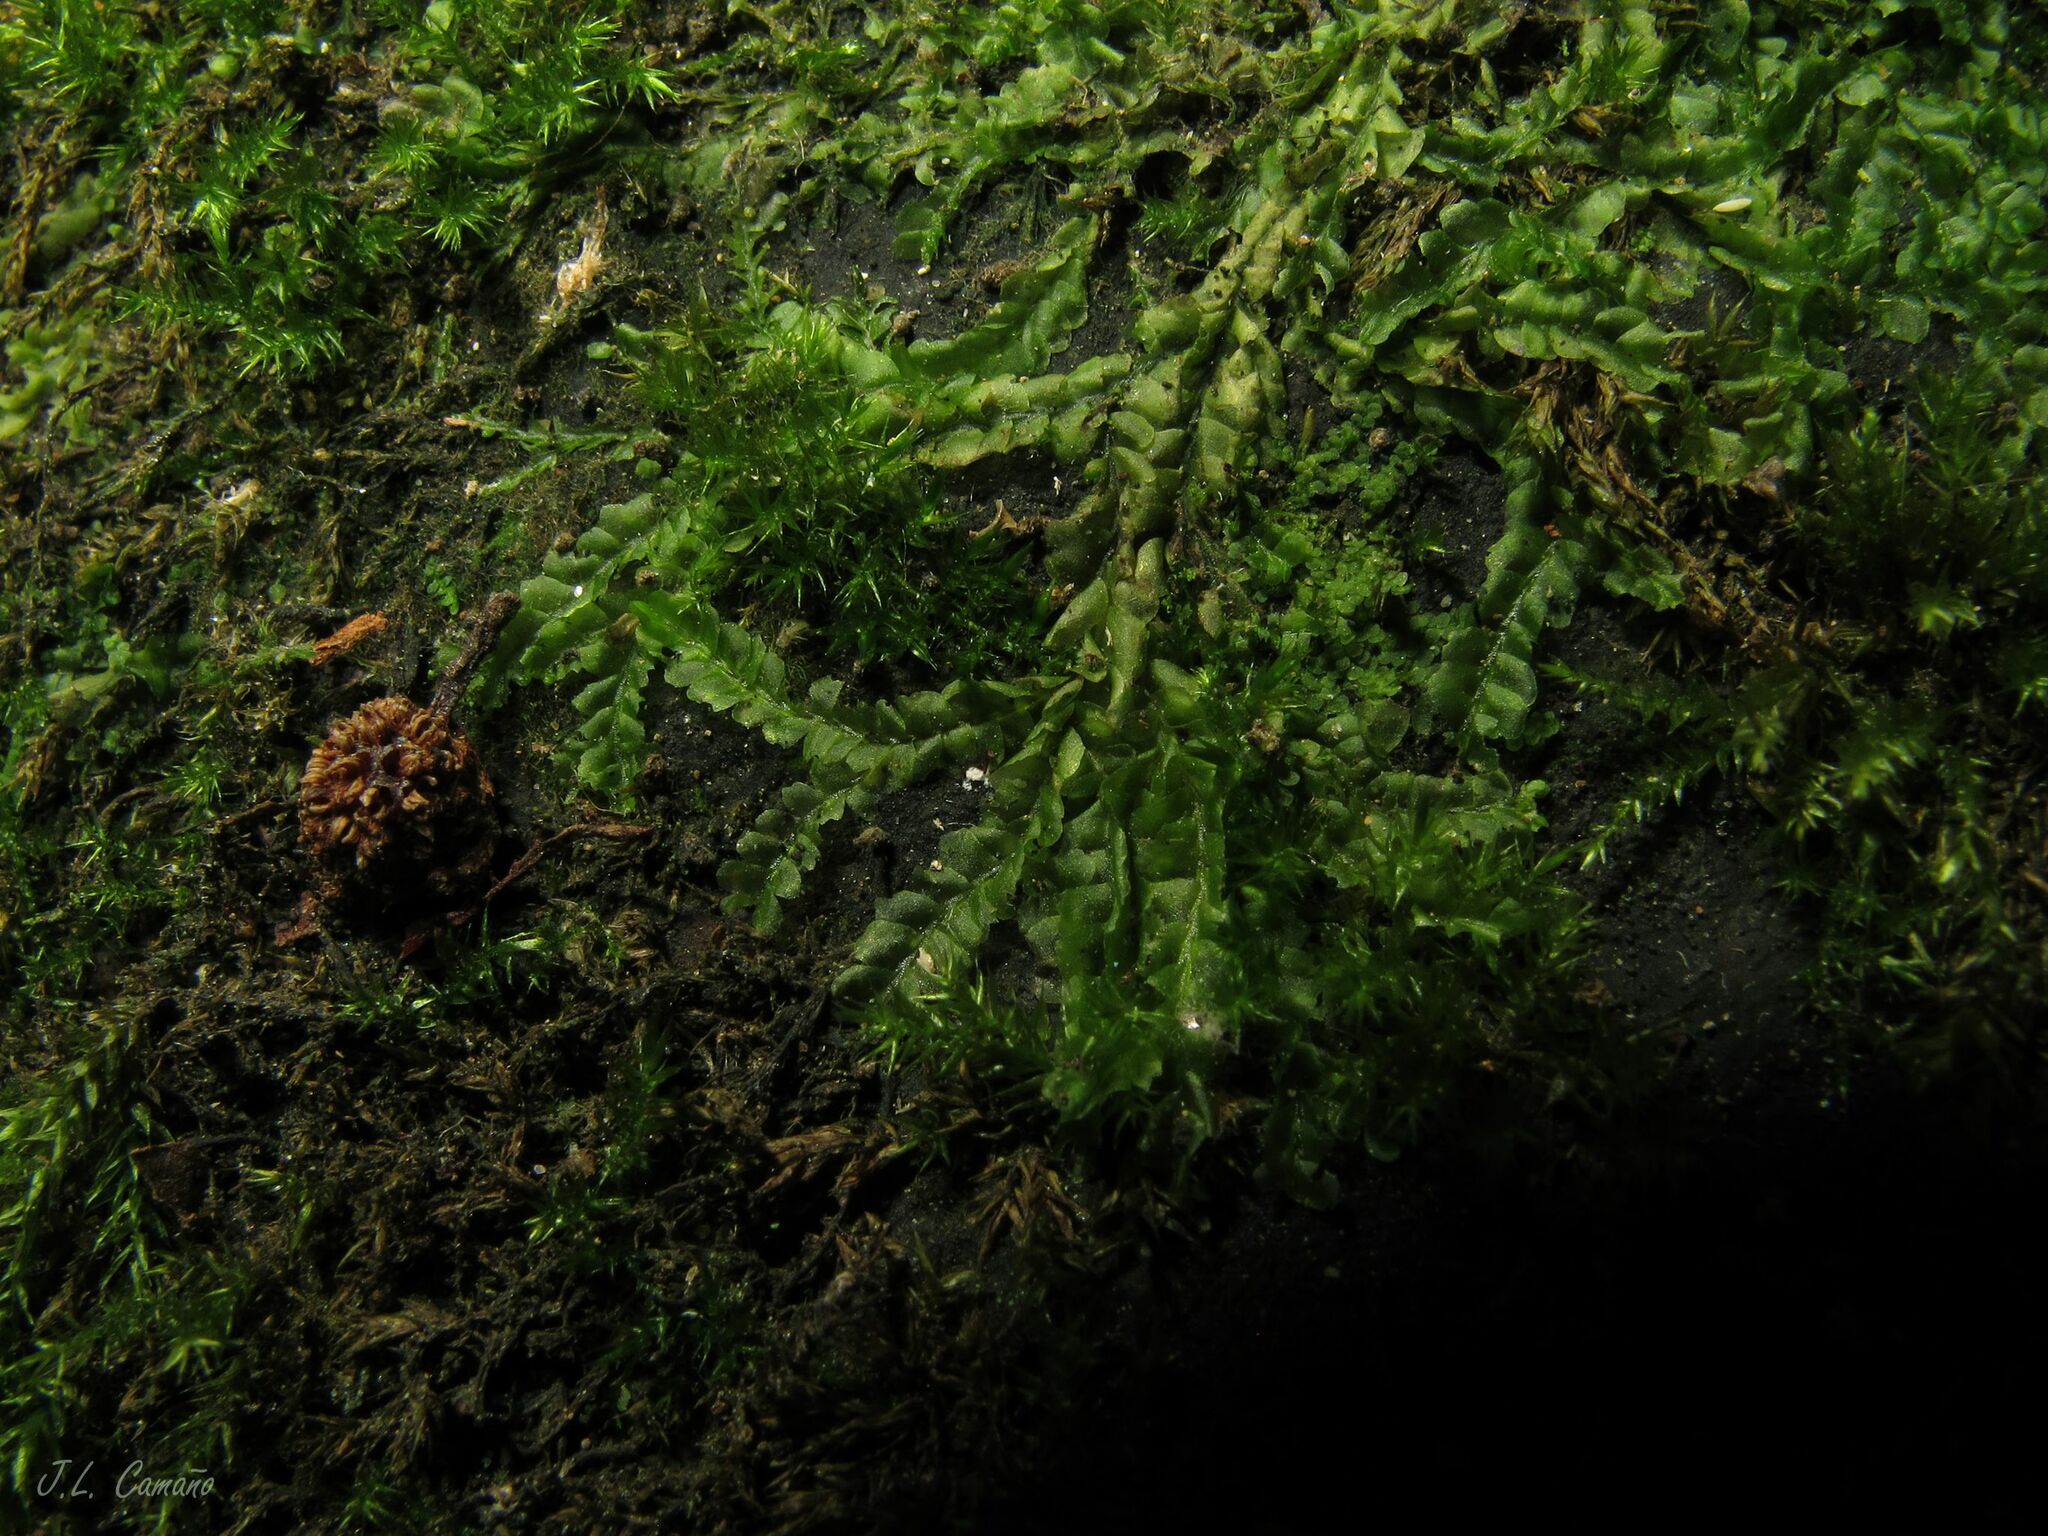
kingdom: Plantae
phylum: Marchantiophyta
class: Jungermanniopsida
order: Jungermanniales
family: Lophocoleaceae
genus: Chiloscyphus
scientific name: Chiloscyphus polyanthos
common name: Square-leaved crestwort
